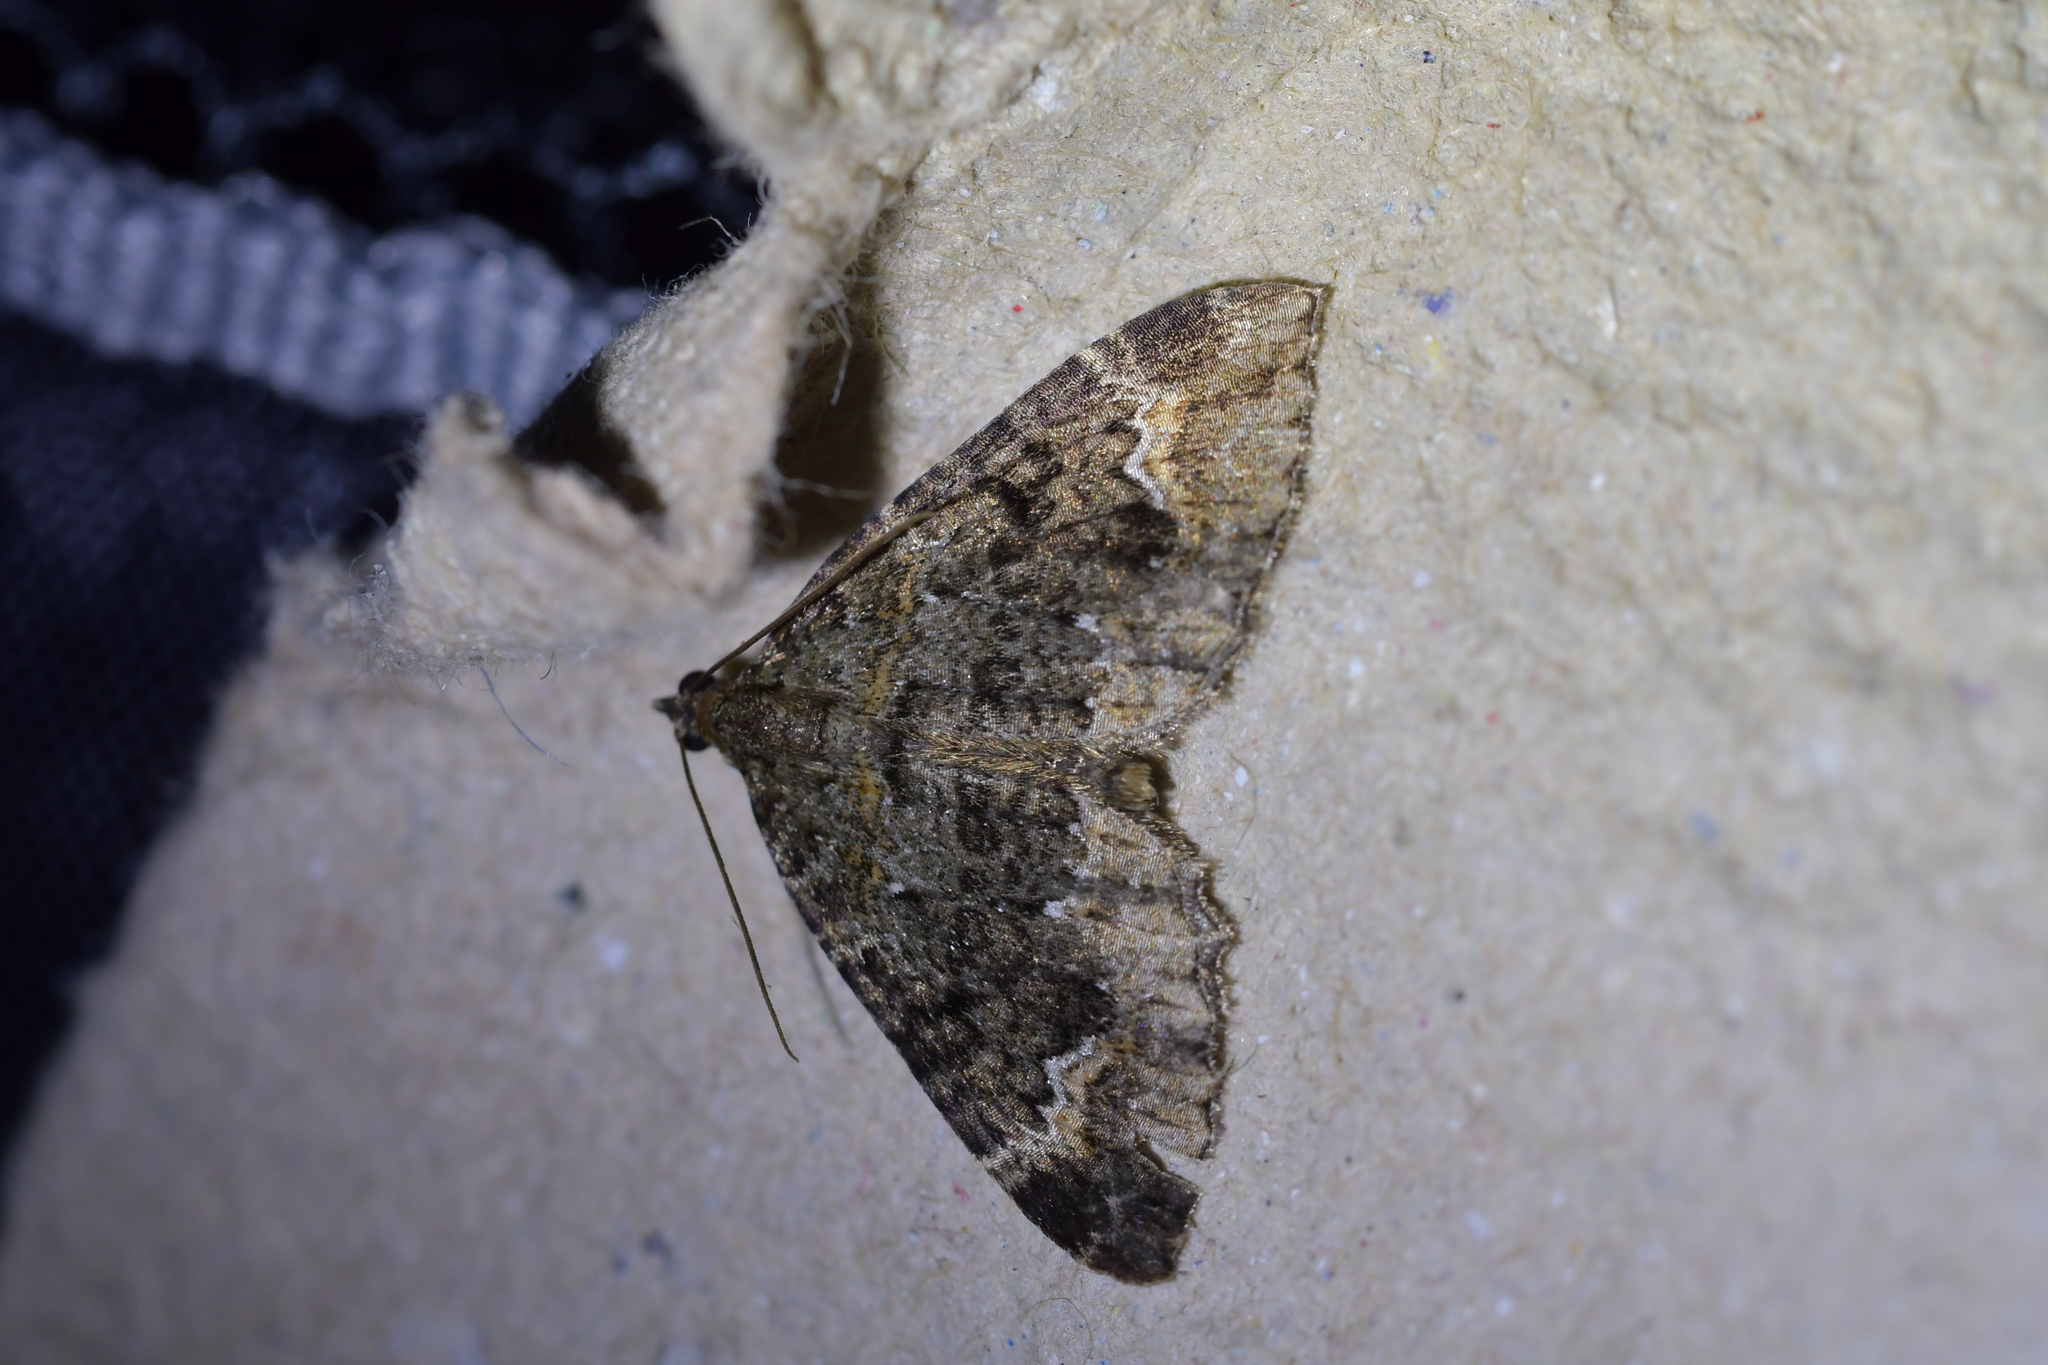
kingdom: Animalia
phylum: Arthropoda
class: Insecta
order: Lepidoptera
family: Geometridae
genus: Hydriomena
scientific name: Hydriomena hemizona
